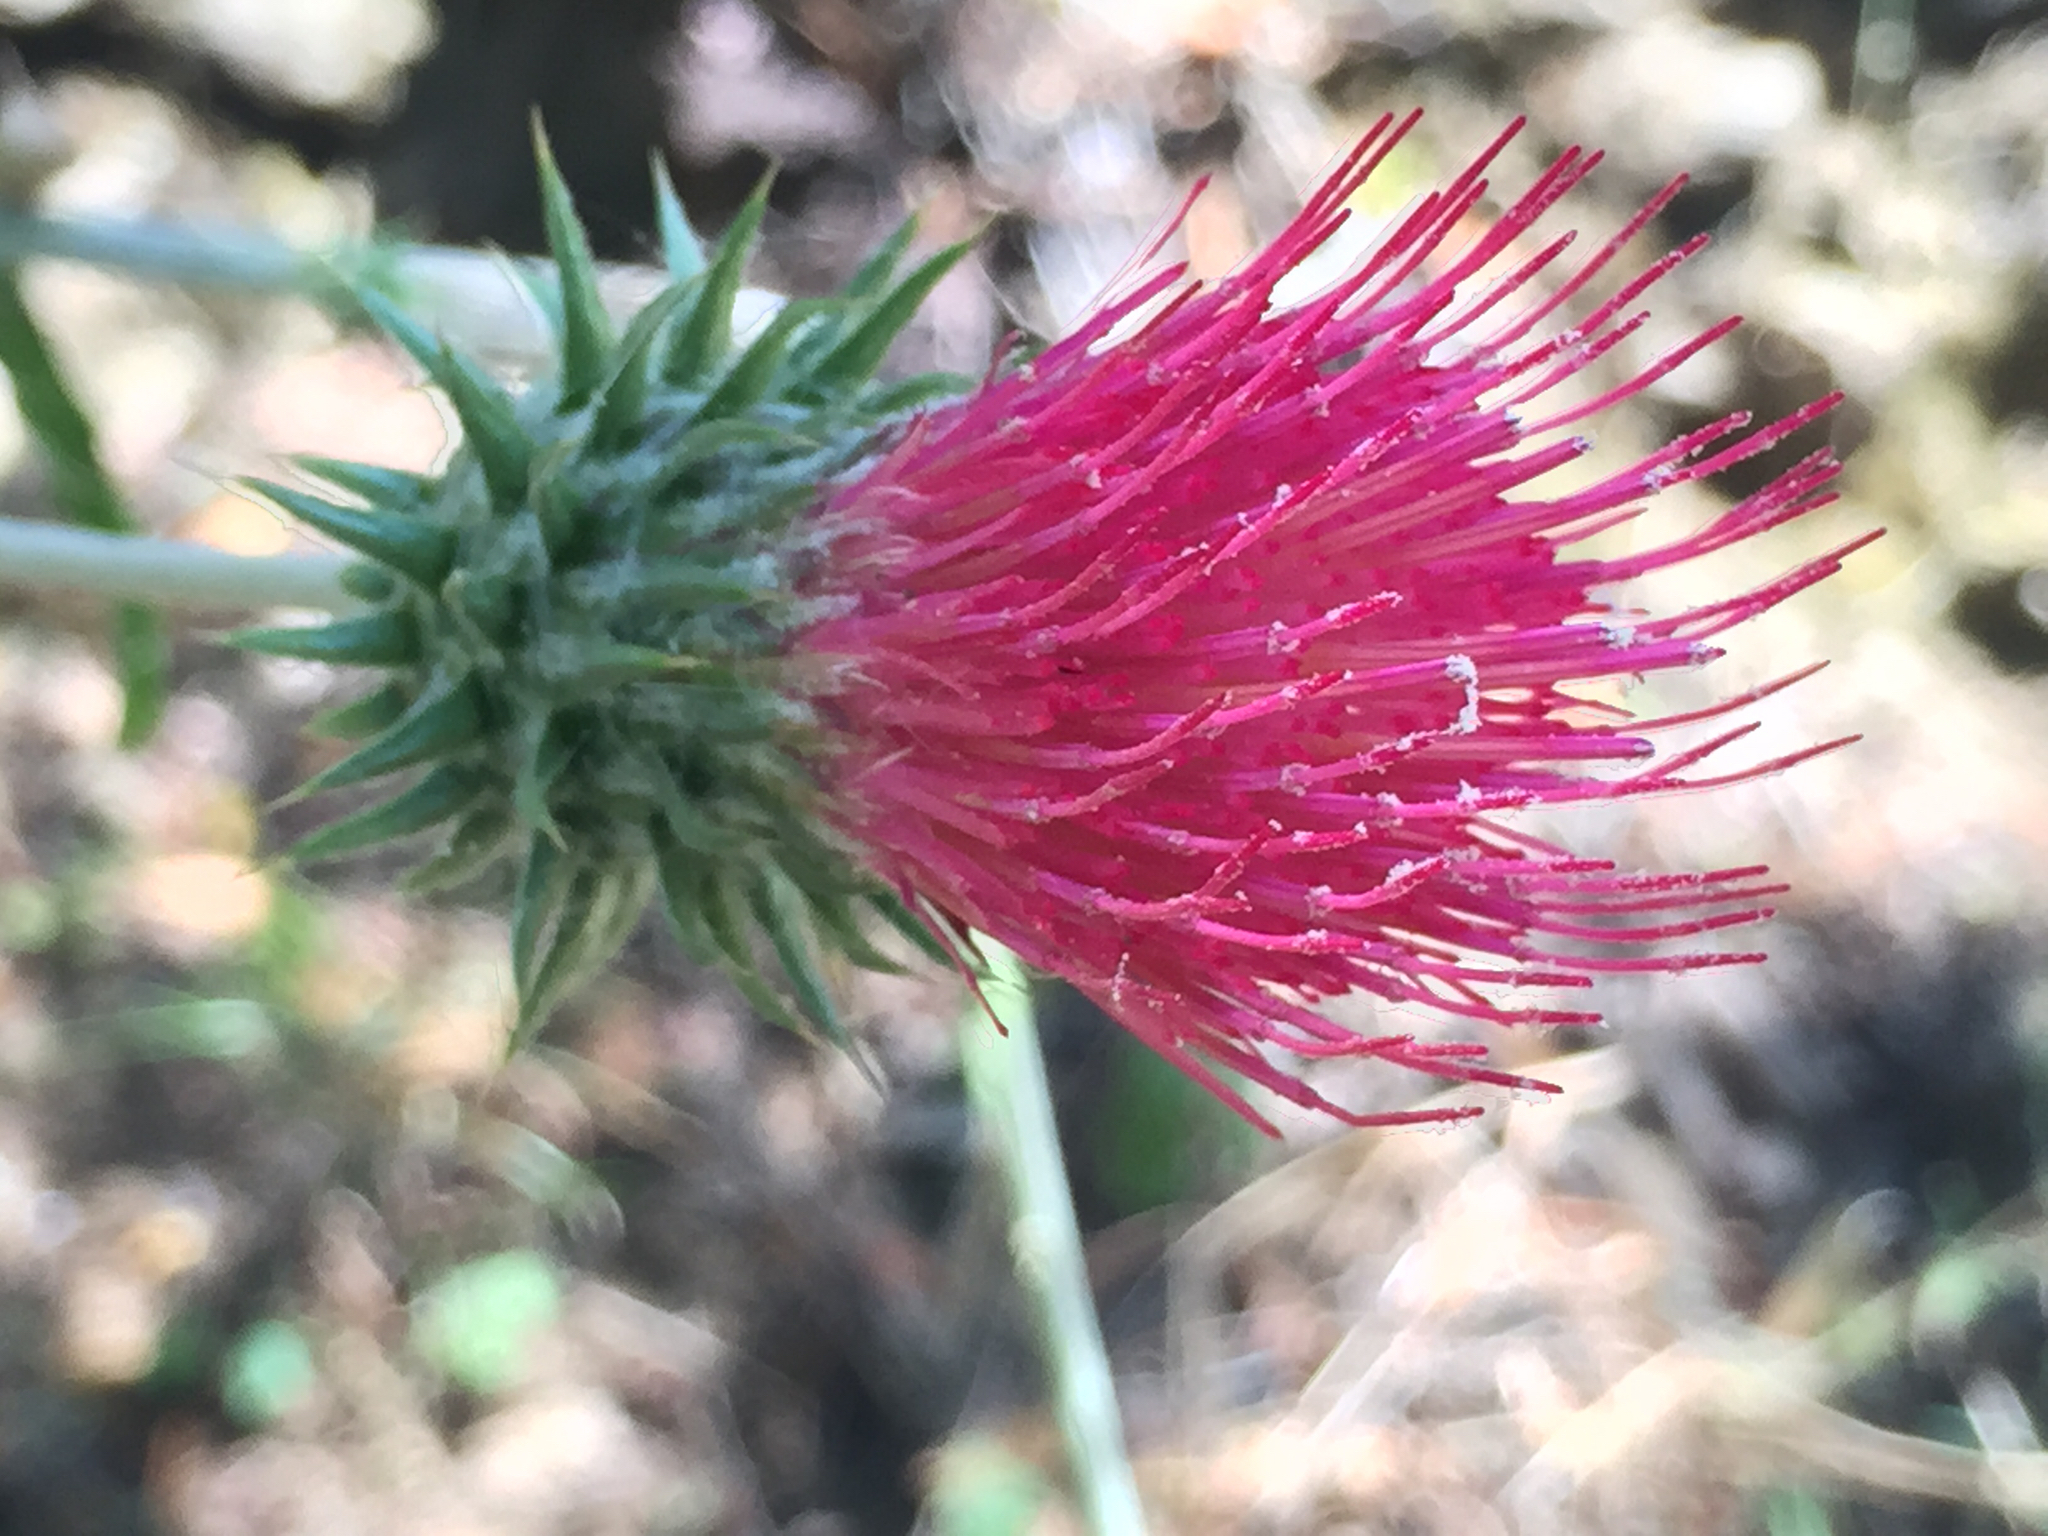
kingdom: Plantae
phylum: Tracheophyta
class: Magnoliopsida
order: Asterales
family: Asteraceae
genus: Cirsium
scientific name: Cirsium occidentale
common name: Western thistle
